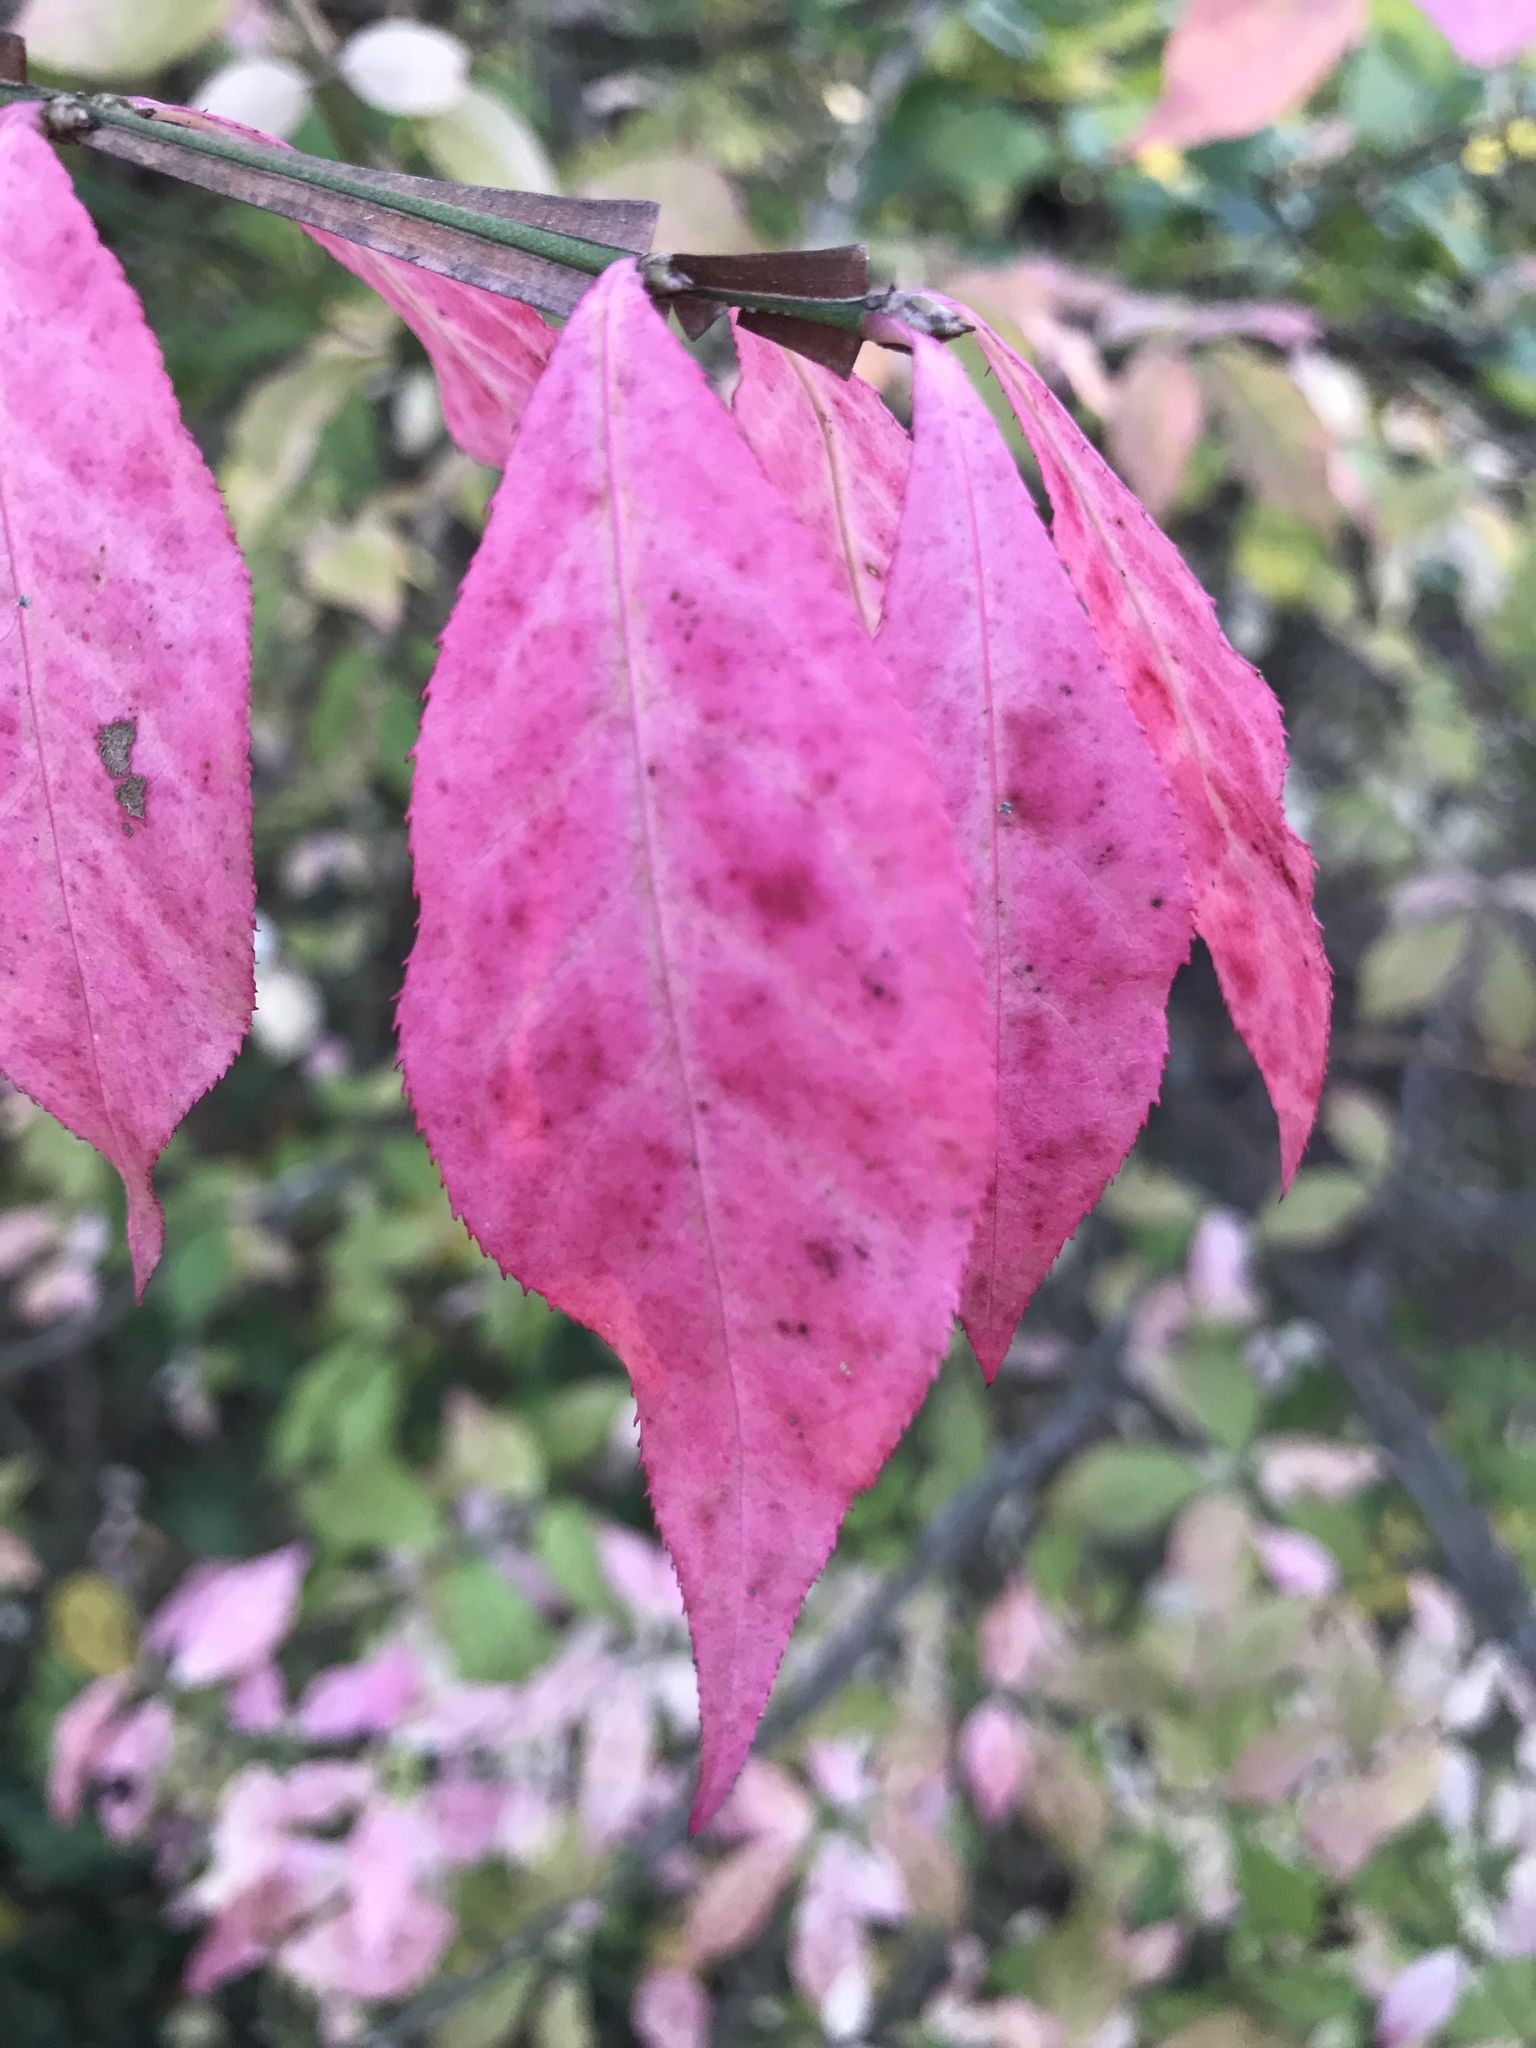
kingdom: Plantae
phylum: Tracheophyta
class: Magnoliopsida
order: Celastrales
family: Celastraceae
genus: Euonymus
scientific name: Euonymus alatus
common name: Winged euonymus
